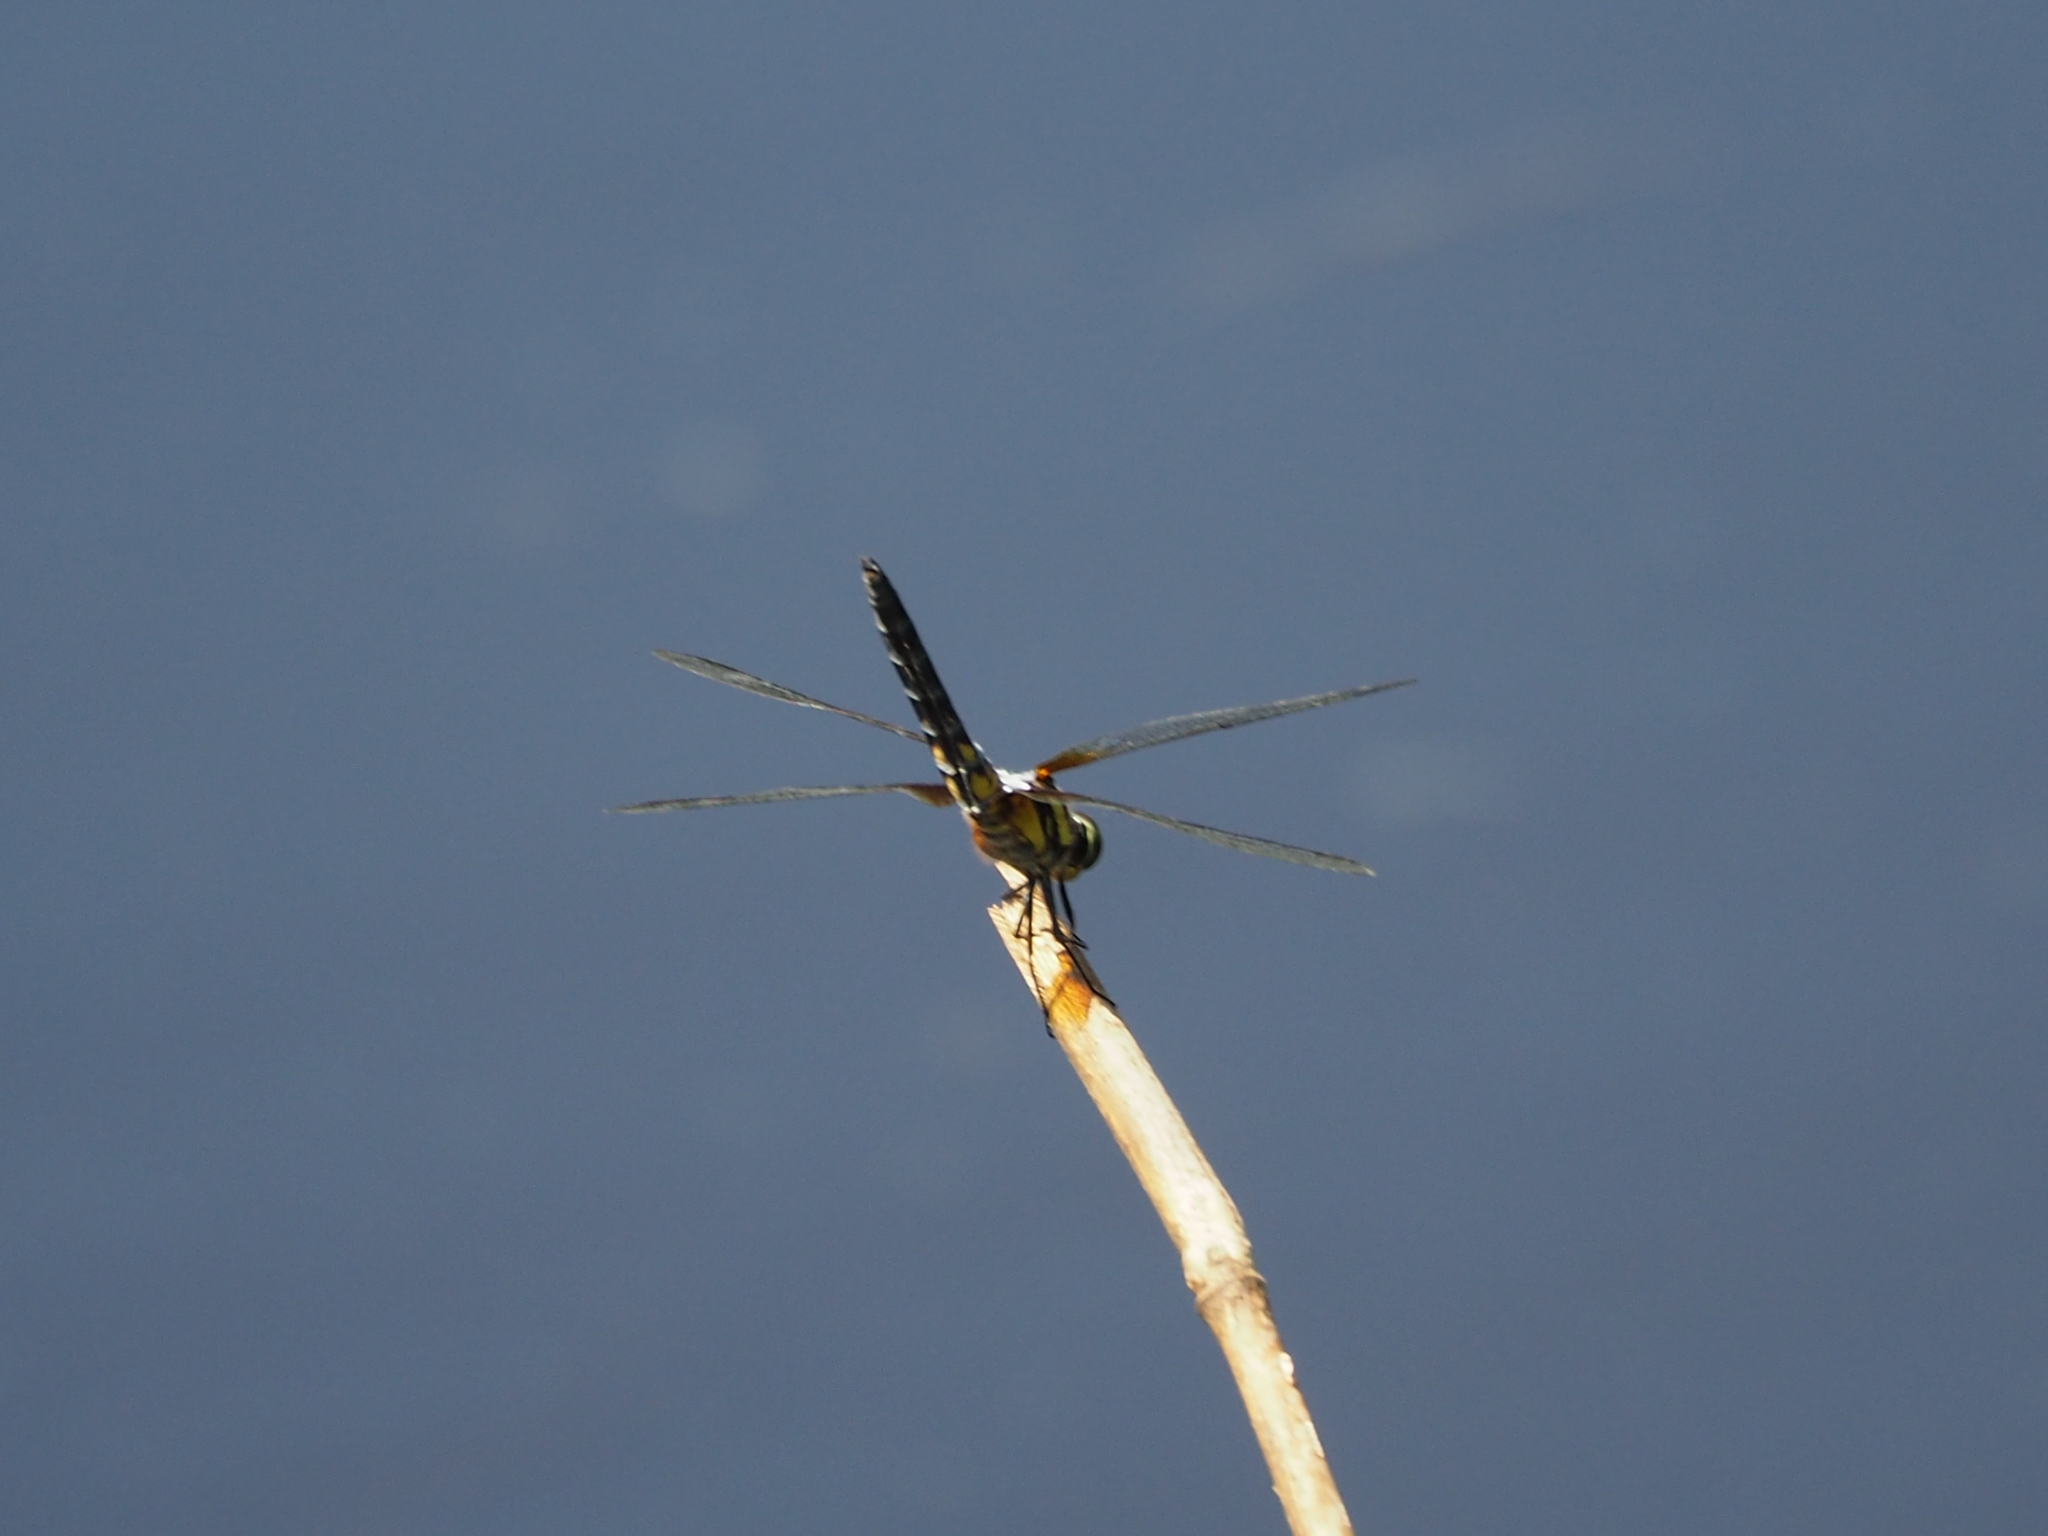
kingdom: Animalia
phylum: Arthropoda
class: Insecta
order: Odonata
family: Libellulidae
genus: Brachydiplax
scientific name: Brachydiplax chalybea
